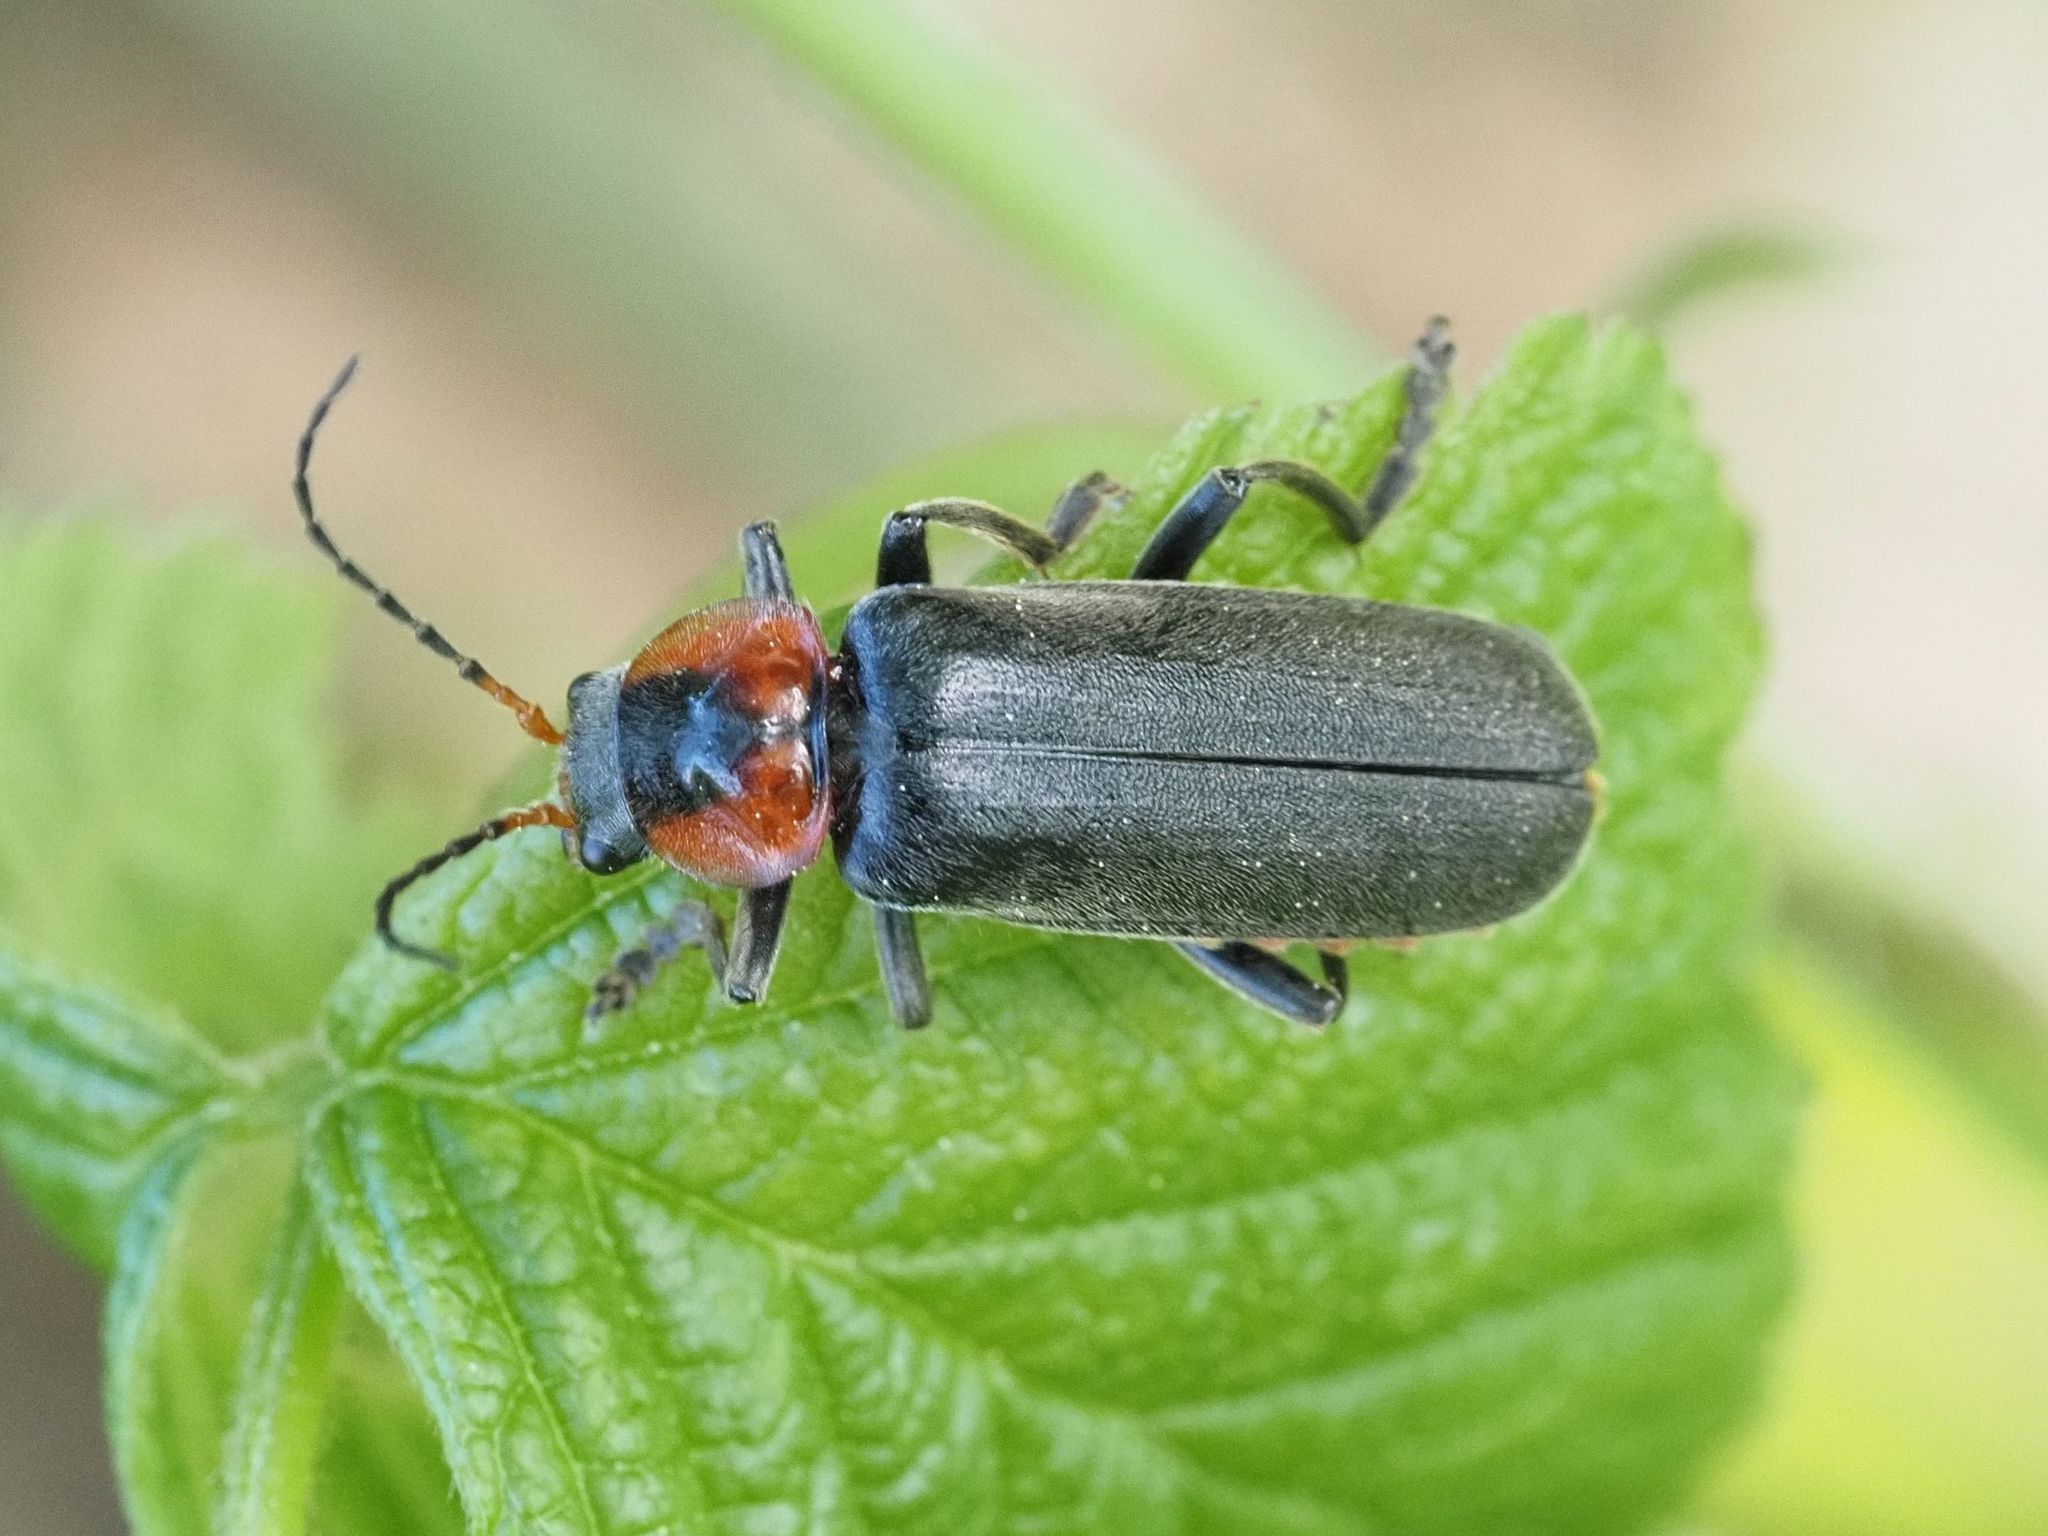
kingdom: Animalia
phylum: Arthropoda
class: Insecta
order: Coleoptera
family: Cantharidae
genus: Cantharis
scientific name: Cantharis fusca
